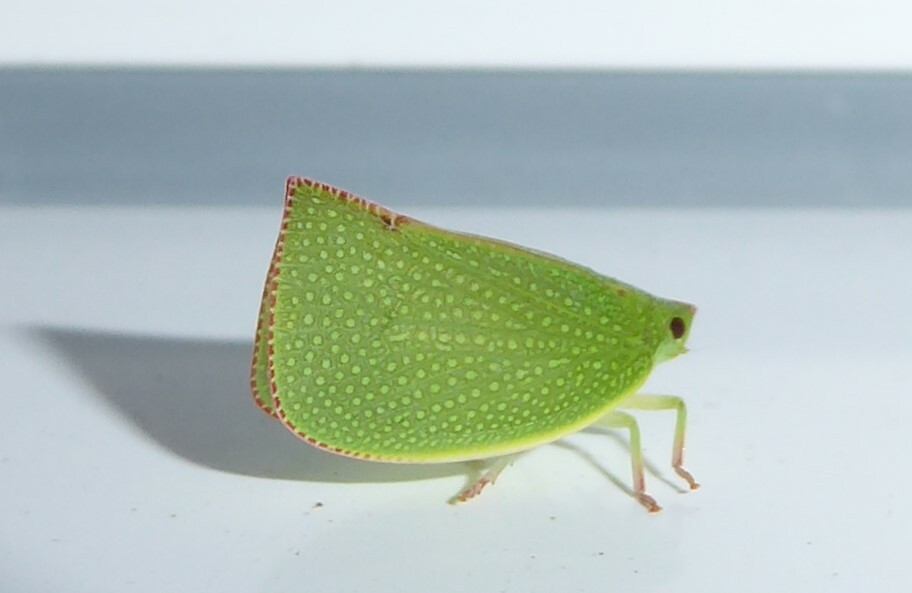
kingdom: Animalia
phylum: Arthropoda
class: Insecta
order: Hemiptera
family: Flatidae
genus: Siphanta
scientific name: Siphanta acuta
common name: Torpedo bug
